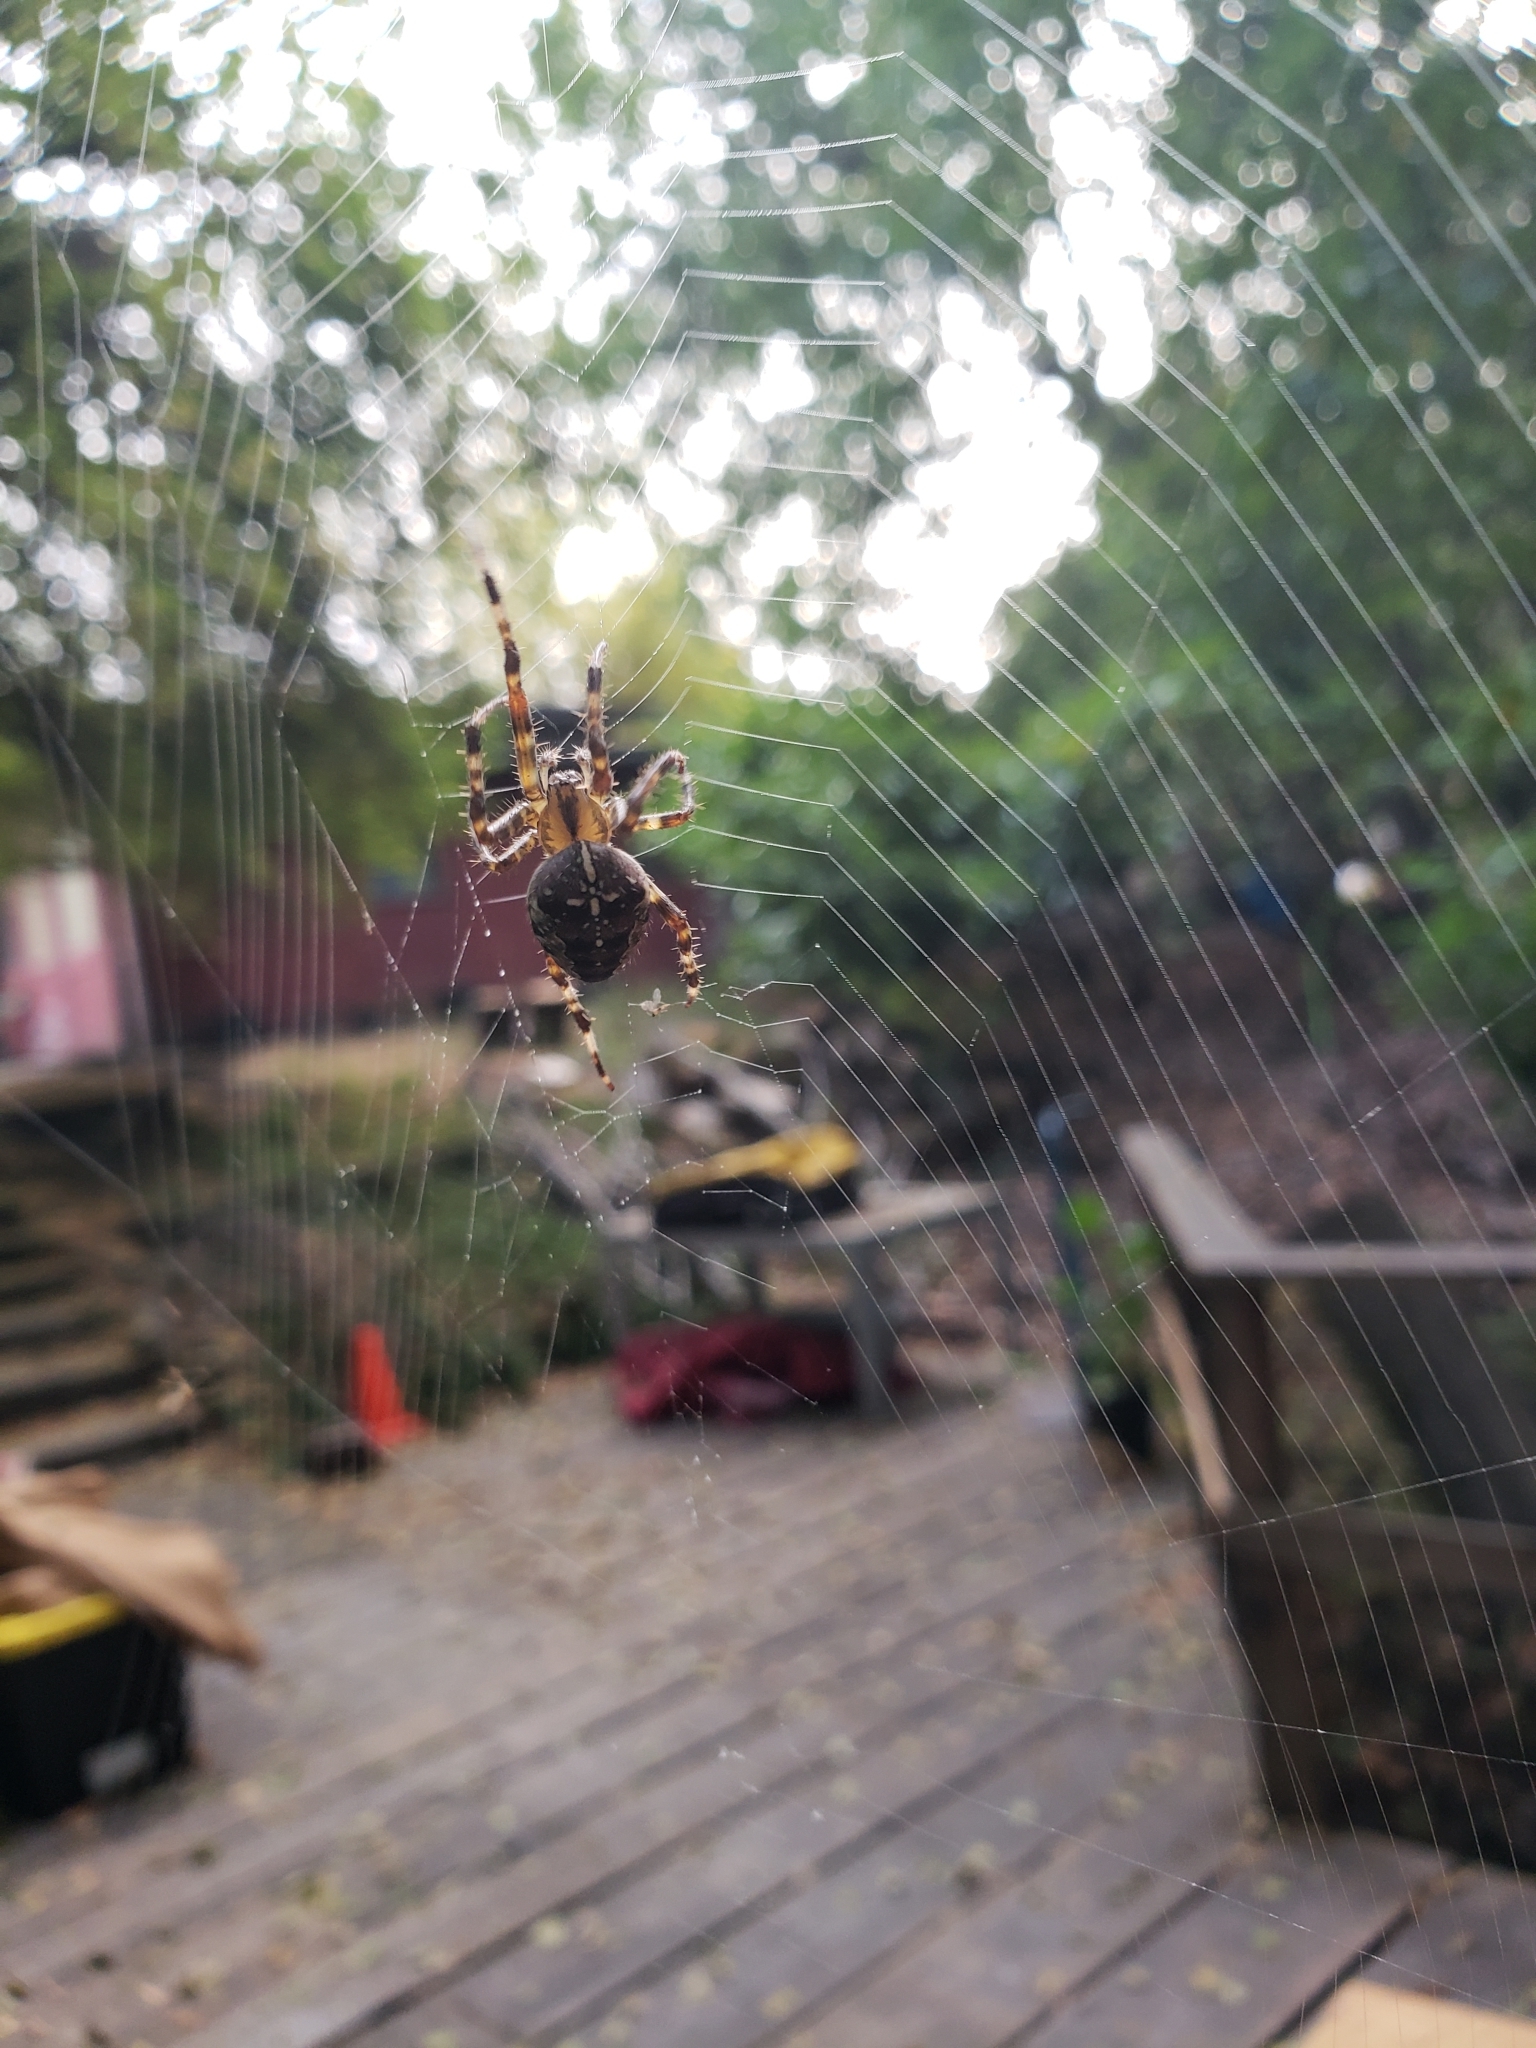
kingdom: Animalia
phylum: Arthropoda
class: Arachnida
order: Araneae
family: Araneidae
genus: Araneus
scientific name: Araneus diadematus
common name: Cross orbweaver
